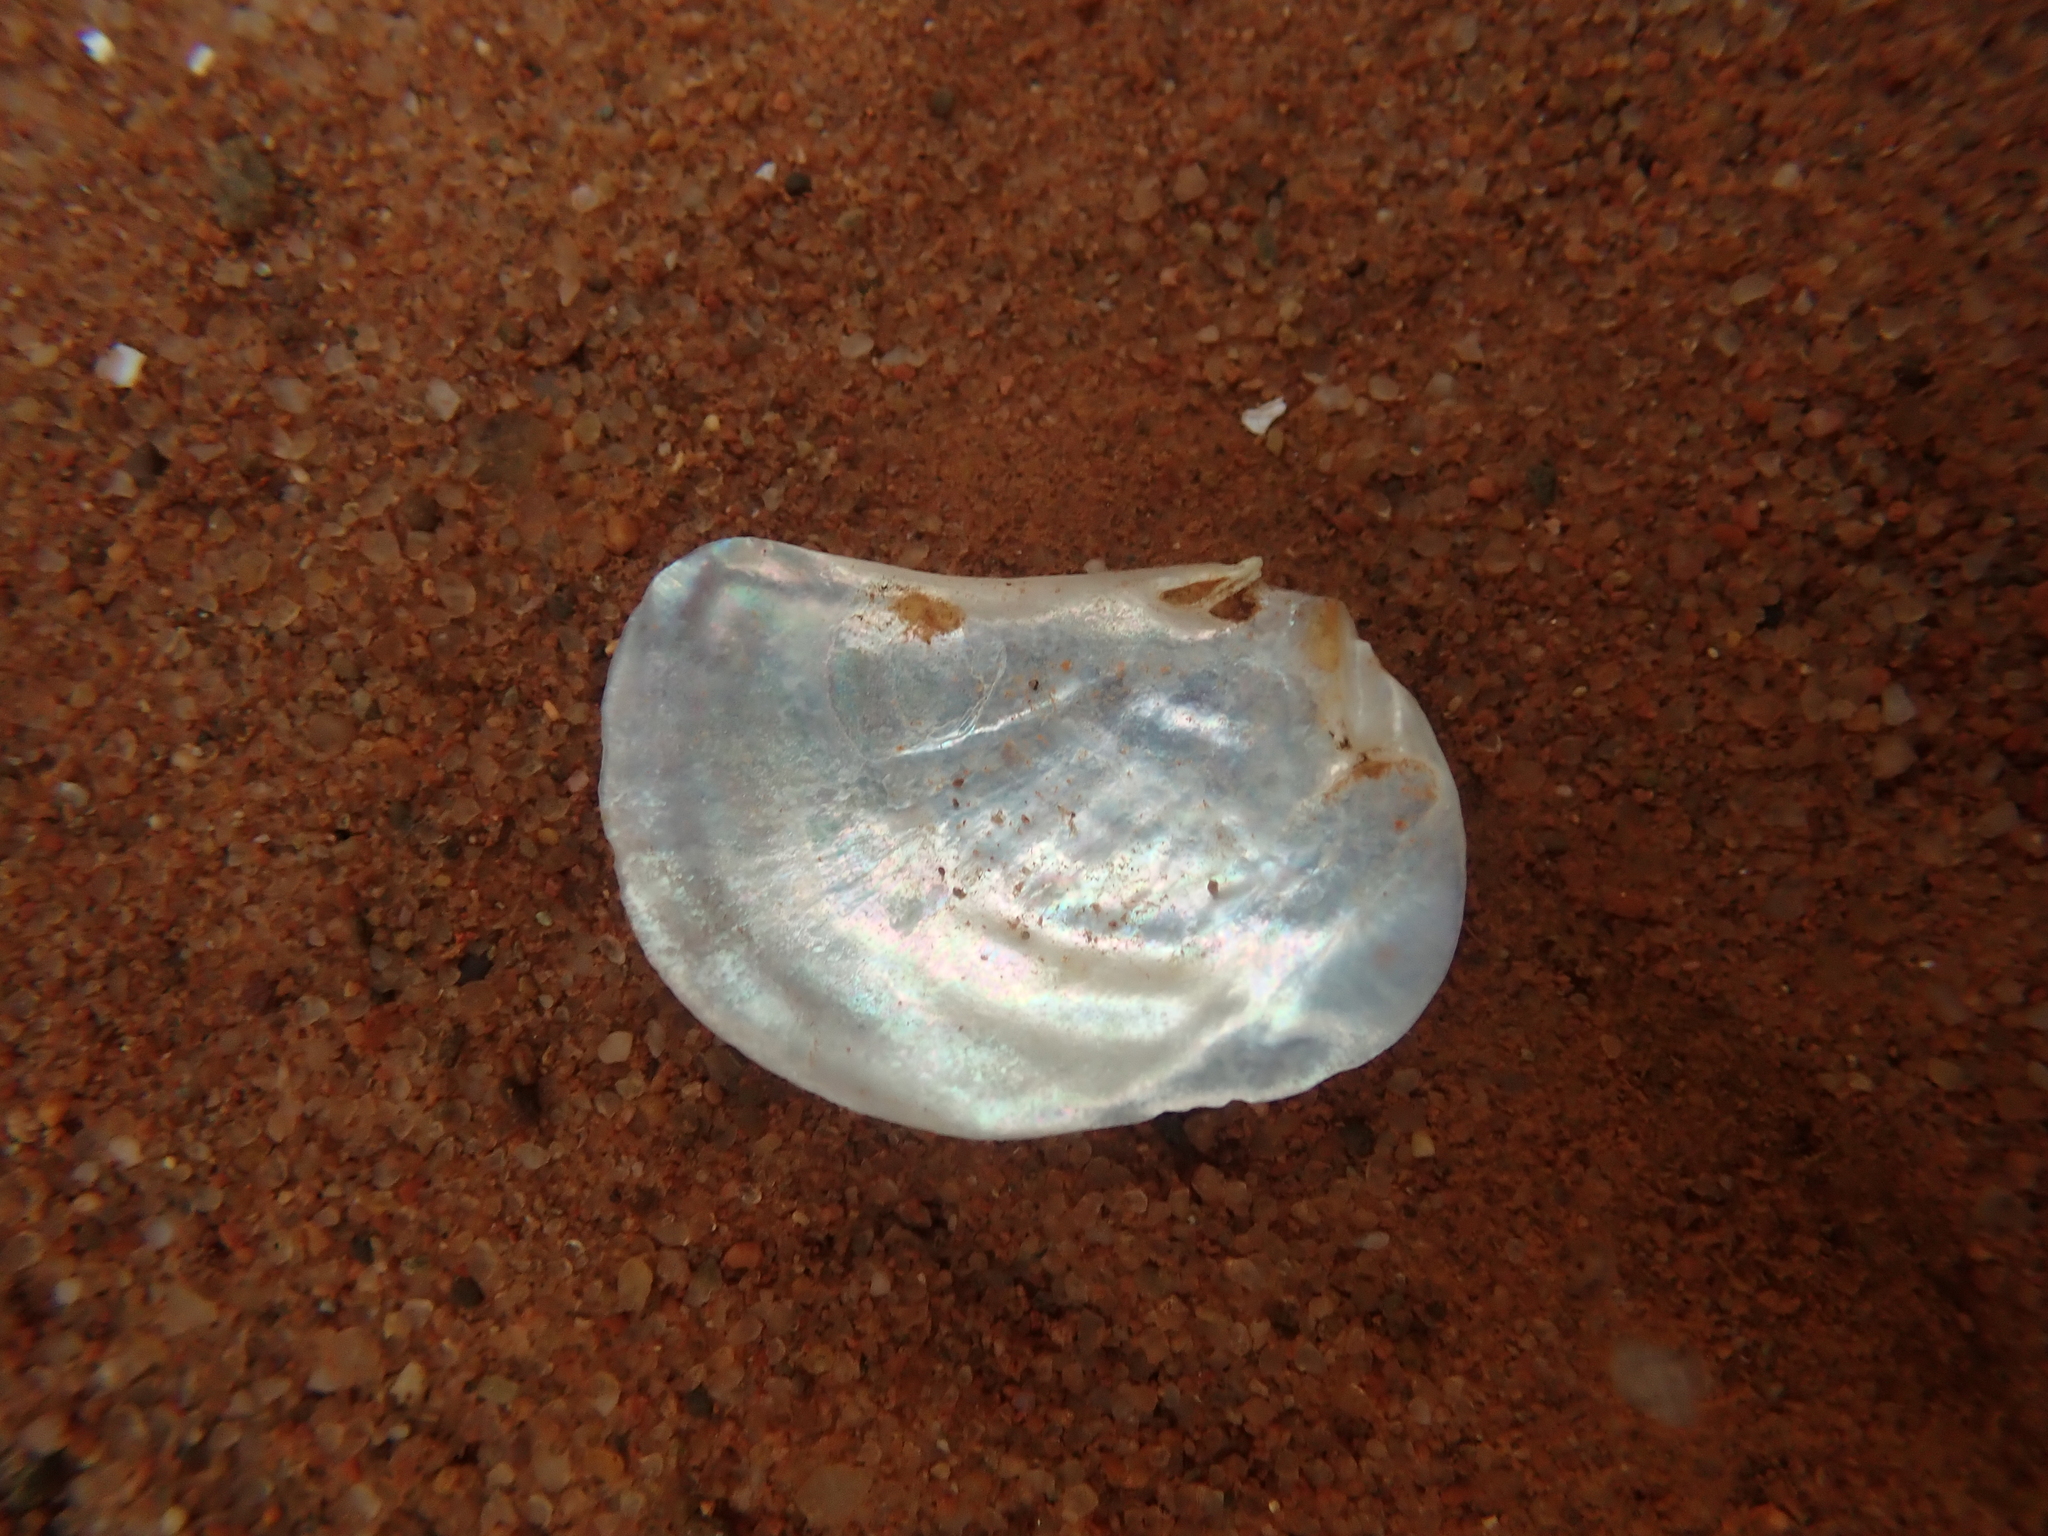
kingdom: Animalia
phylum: Mollusca
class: Bivalvia
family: Pandoridae
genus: Pandora
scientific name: Pandora gouldiana
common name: Rounded pandora
